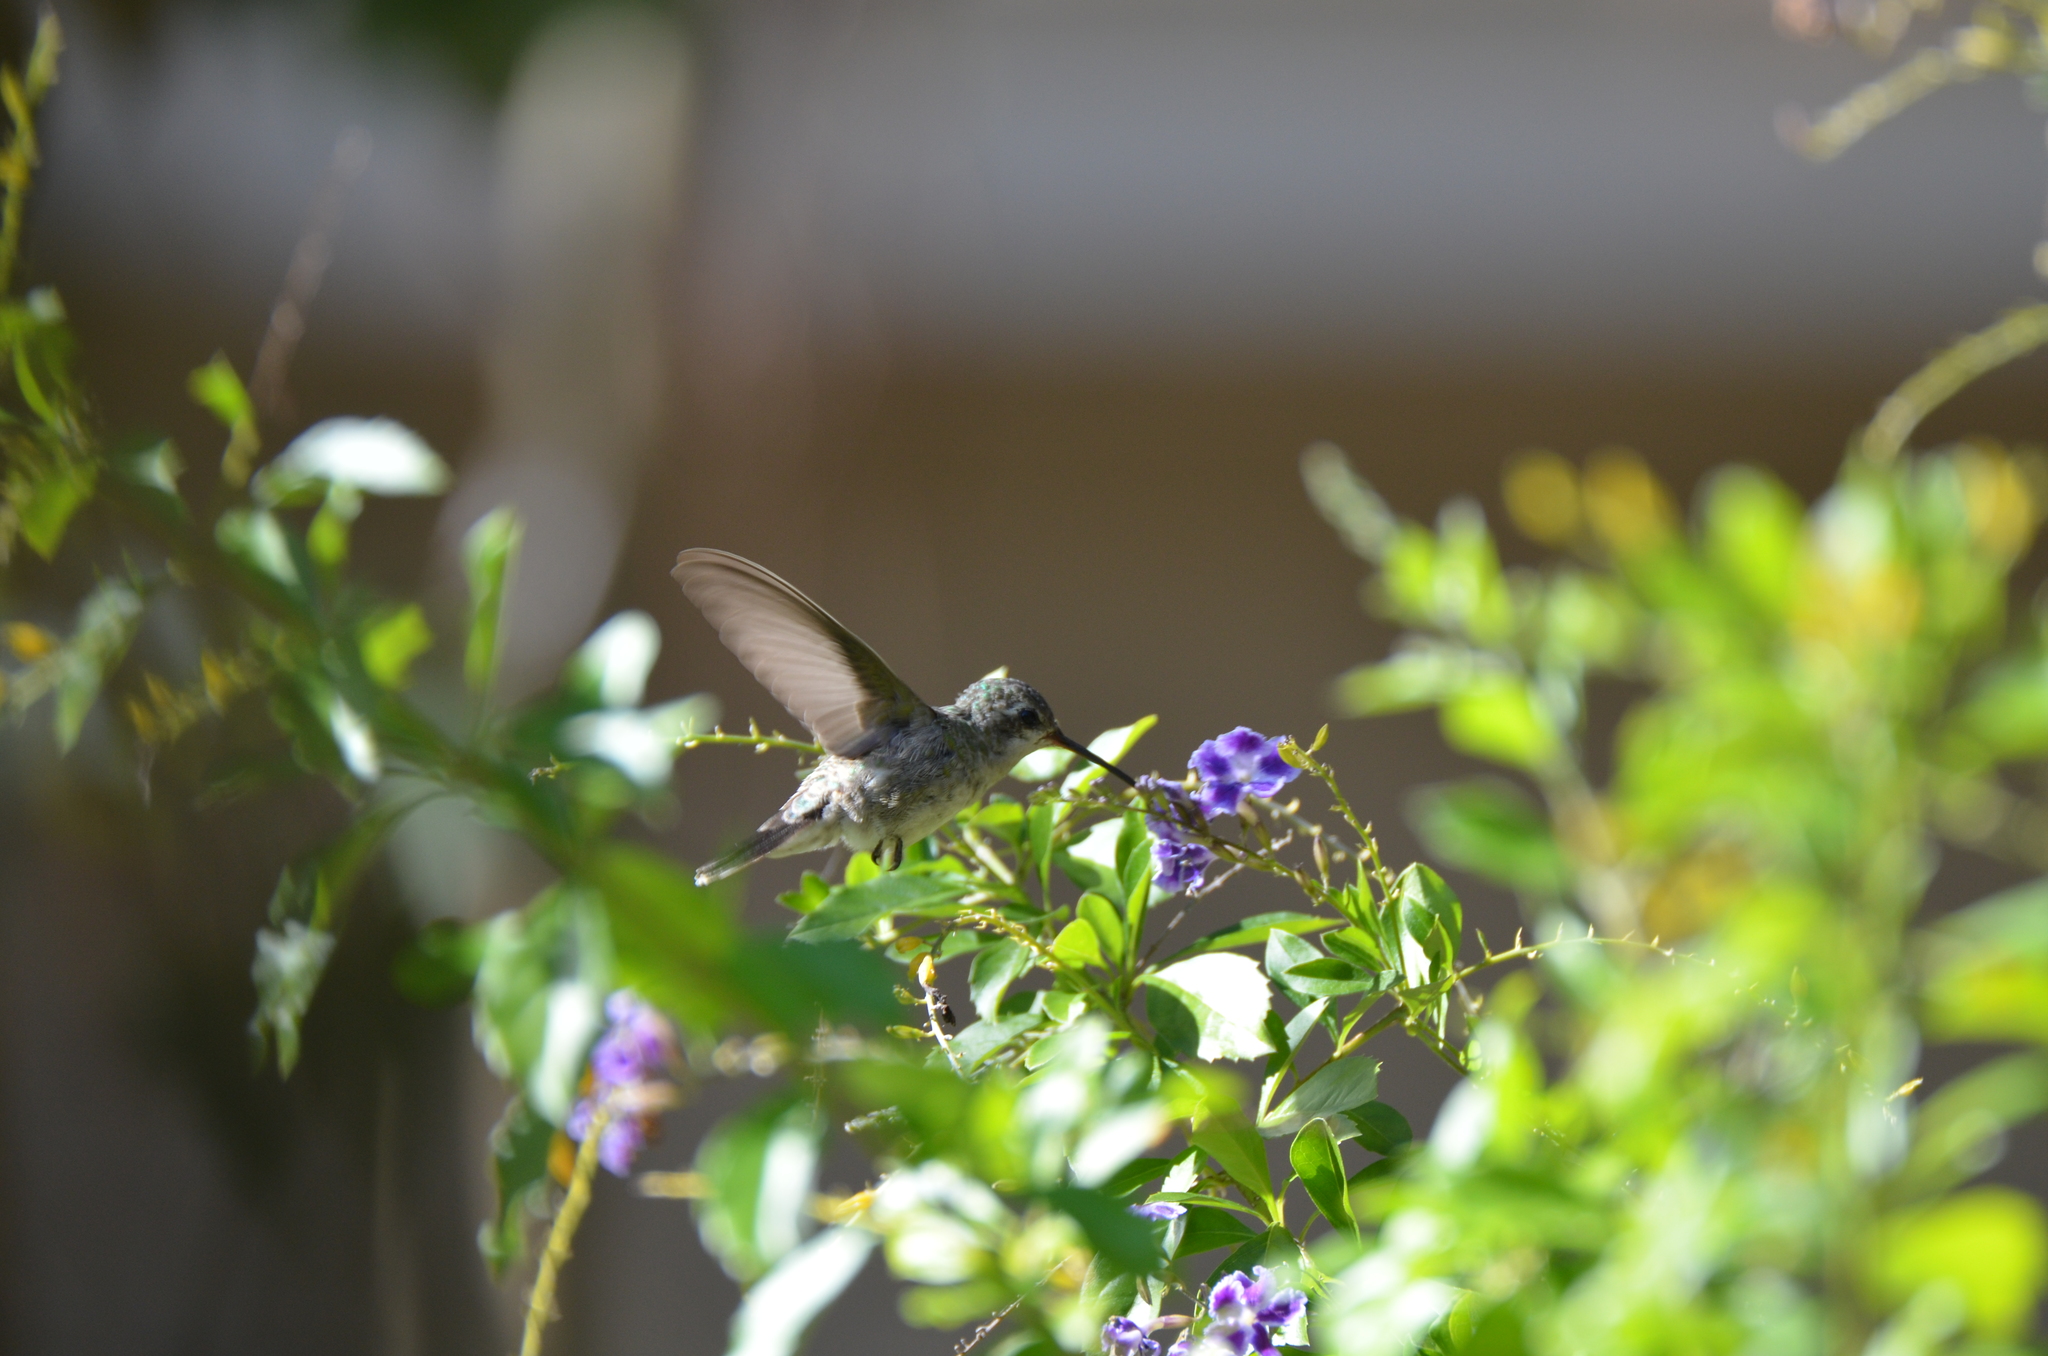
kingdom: Animalia
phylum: Chordata
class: Aves
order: Apodiformes
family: Trochilidae
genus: Cynanthus
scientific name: Cynanthus latirostris
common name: Broad-billed hummingbird
